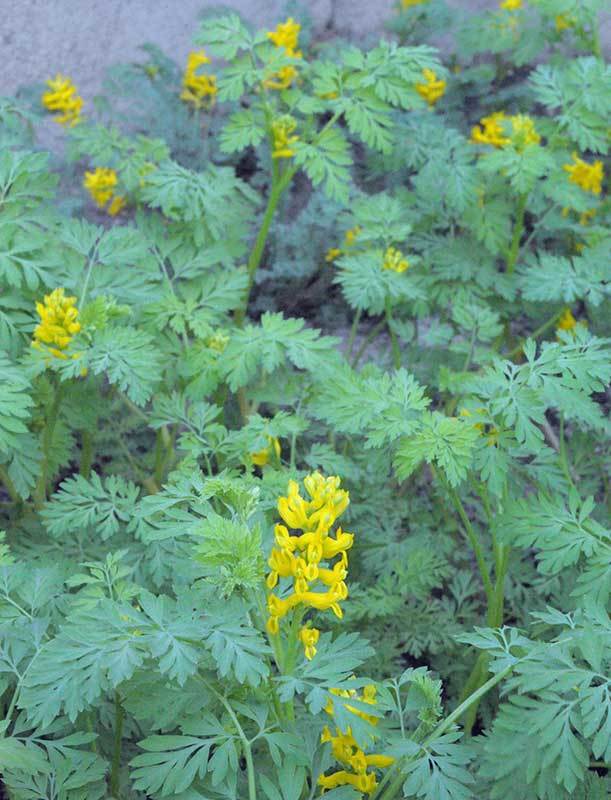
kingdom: Plantae
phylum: Tracheophyta
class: Magnoliopsida
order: Ranunculales
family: Papaveraceae
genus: Pseudofumaria
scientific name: Pseudofumaria lutea
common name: Yellow corydalis
